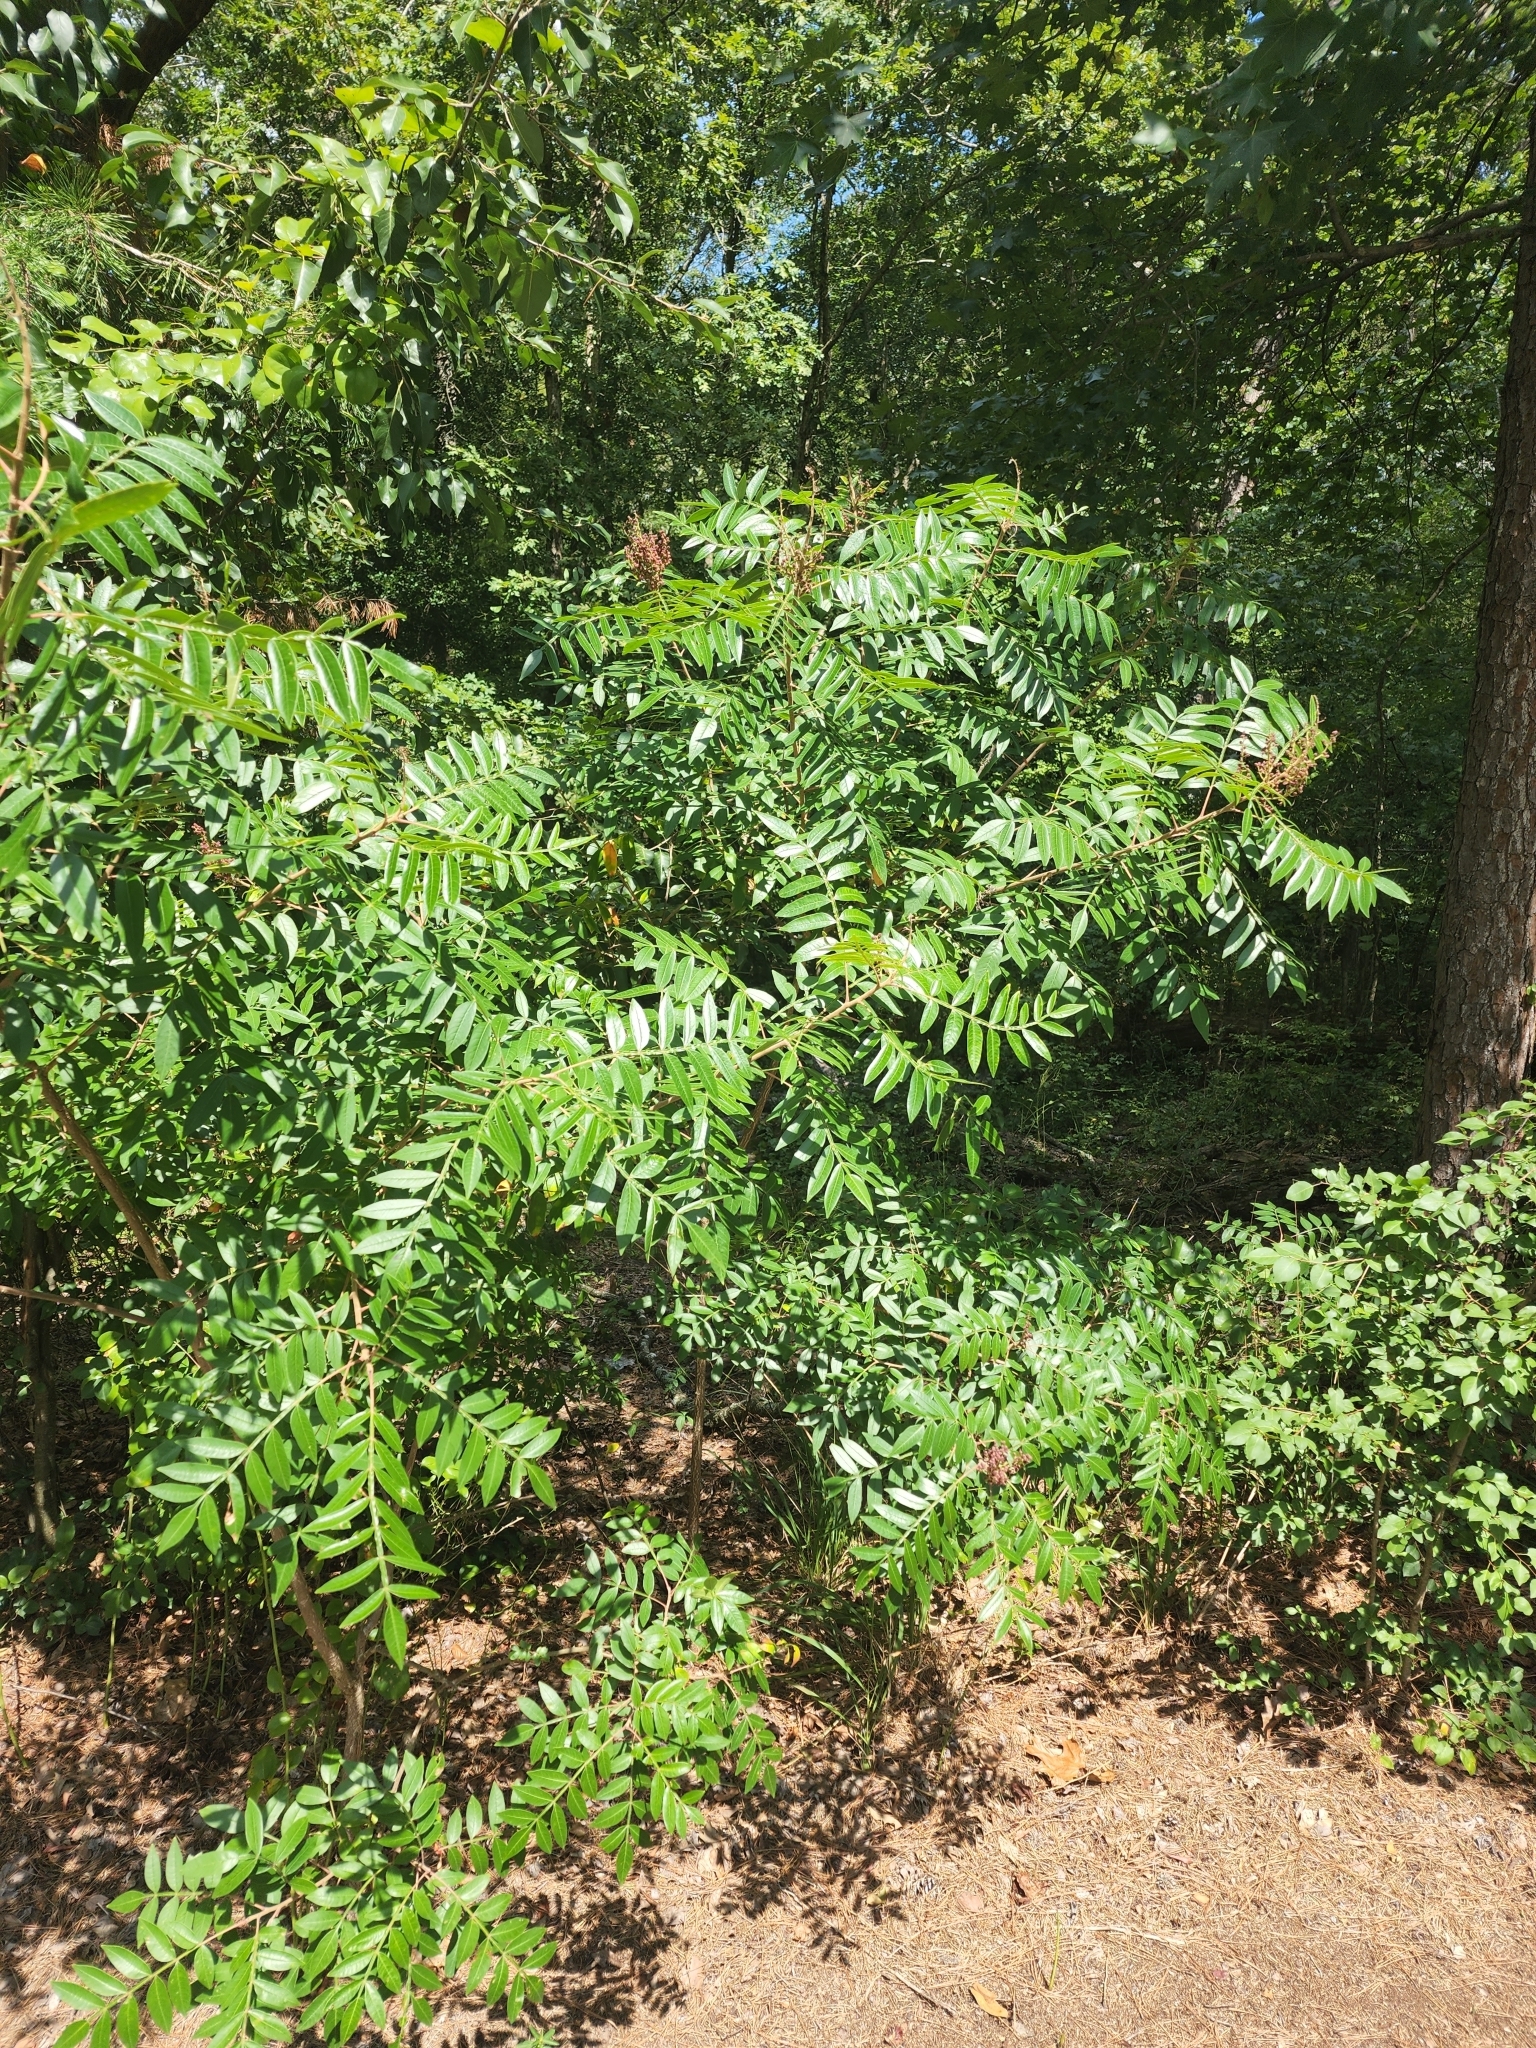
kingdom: Plantae
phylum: Tracheophyta
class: Magnoliopsida
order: Sapindales
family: Anacardiaceae
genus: Rhus
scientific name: Rhus copallina
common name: Shining sumac
